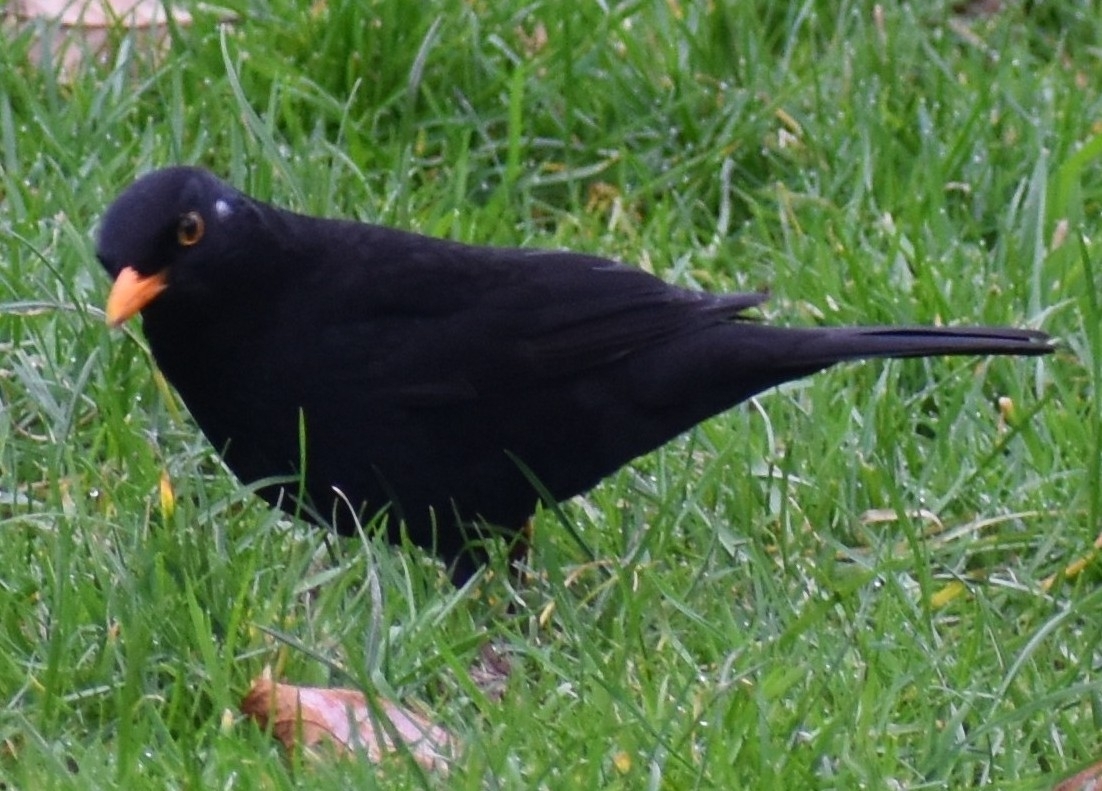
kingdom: Animalia
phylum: Chordata
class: Aves
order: Passeriformes
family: Turdidae
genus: Turdus
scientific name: Turdus merula
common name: Common blackbird
